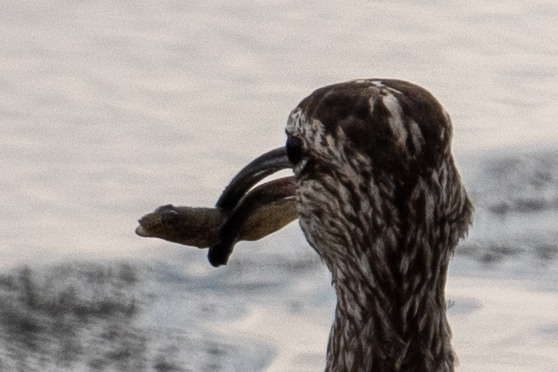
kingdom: Animalia
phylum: Chordata
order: Perciformes
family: Gobiidae
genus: Acanthogobius
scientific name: Acanthogobius flavimanus
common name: Yellowfin goby
